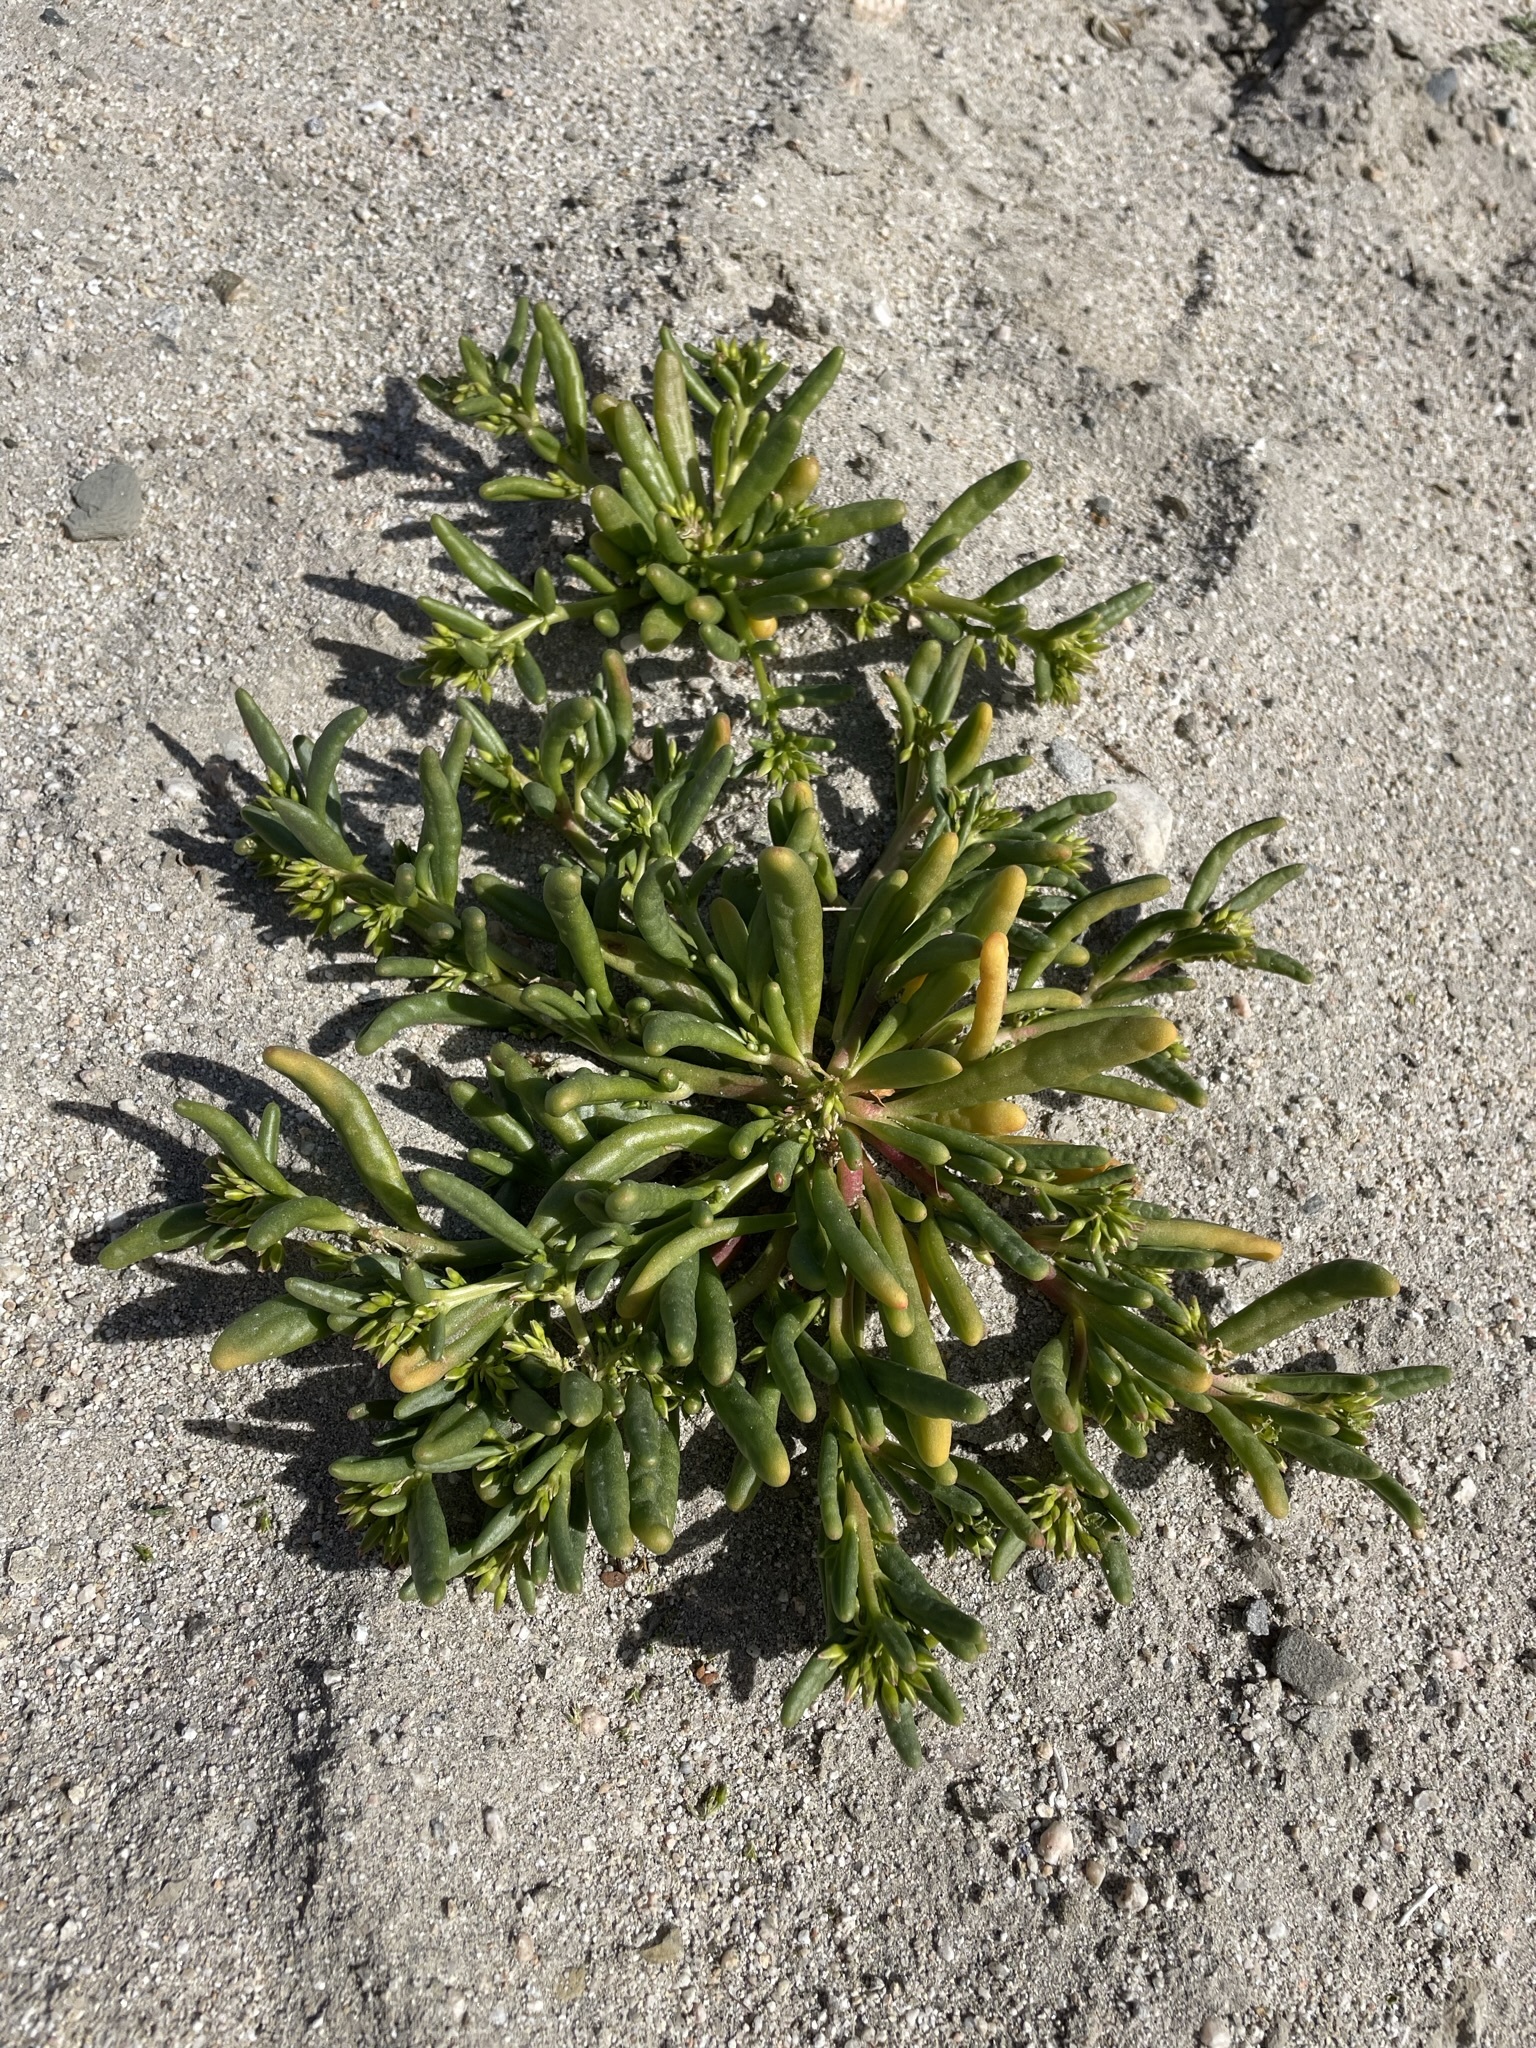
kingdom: Plantae
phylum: Tracheophyta
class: Magnoliopsida
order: Caryophyllales
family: Montiaceae
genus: Thingia
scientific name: Thingia ambigua
